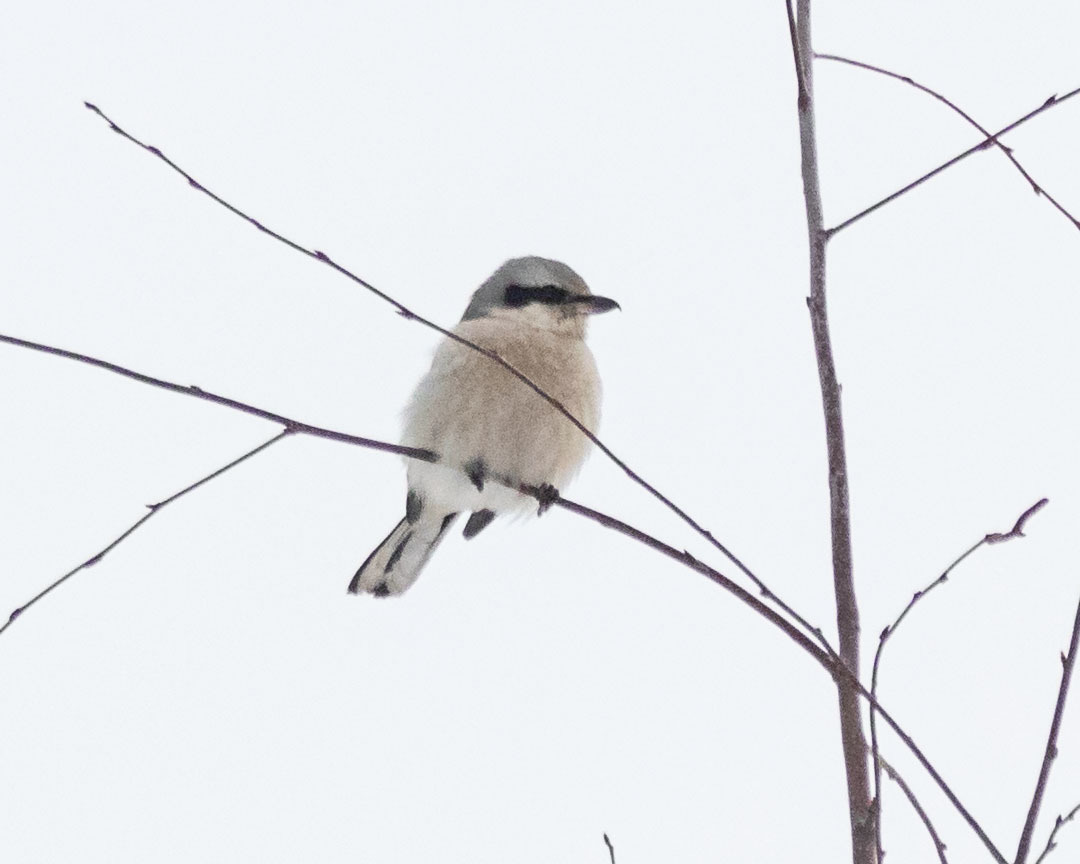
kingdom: Animalia
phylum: Chordata
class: Aves
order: Passeriformes
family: Laniidae
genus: Lanius
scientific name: Lanius excubitor
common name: Great grey shrike
